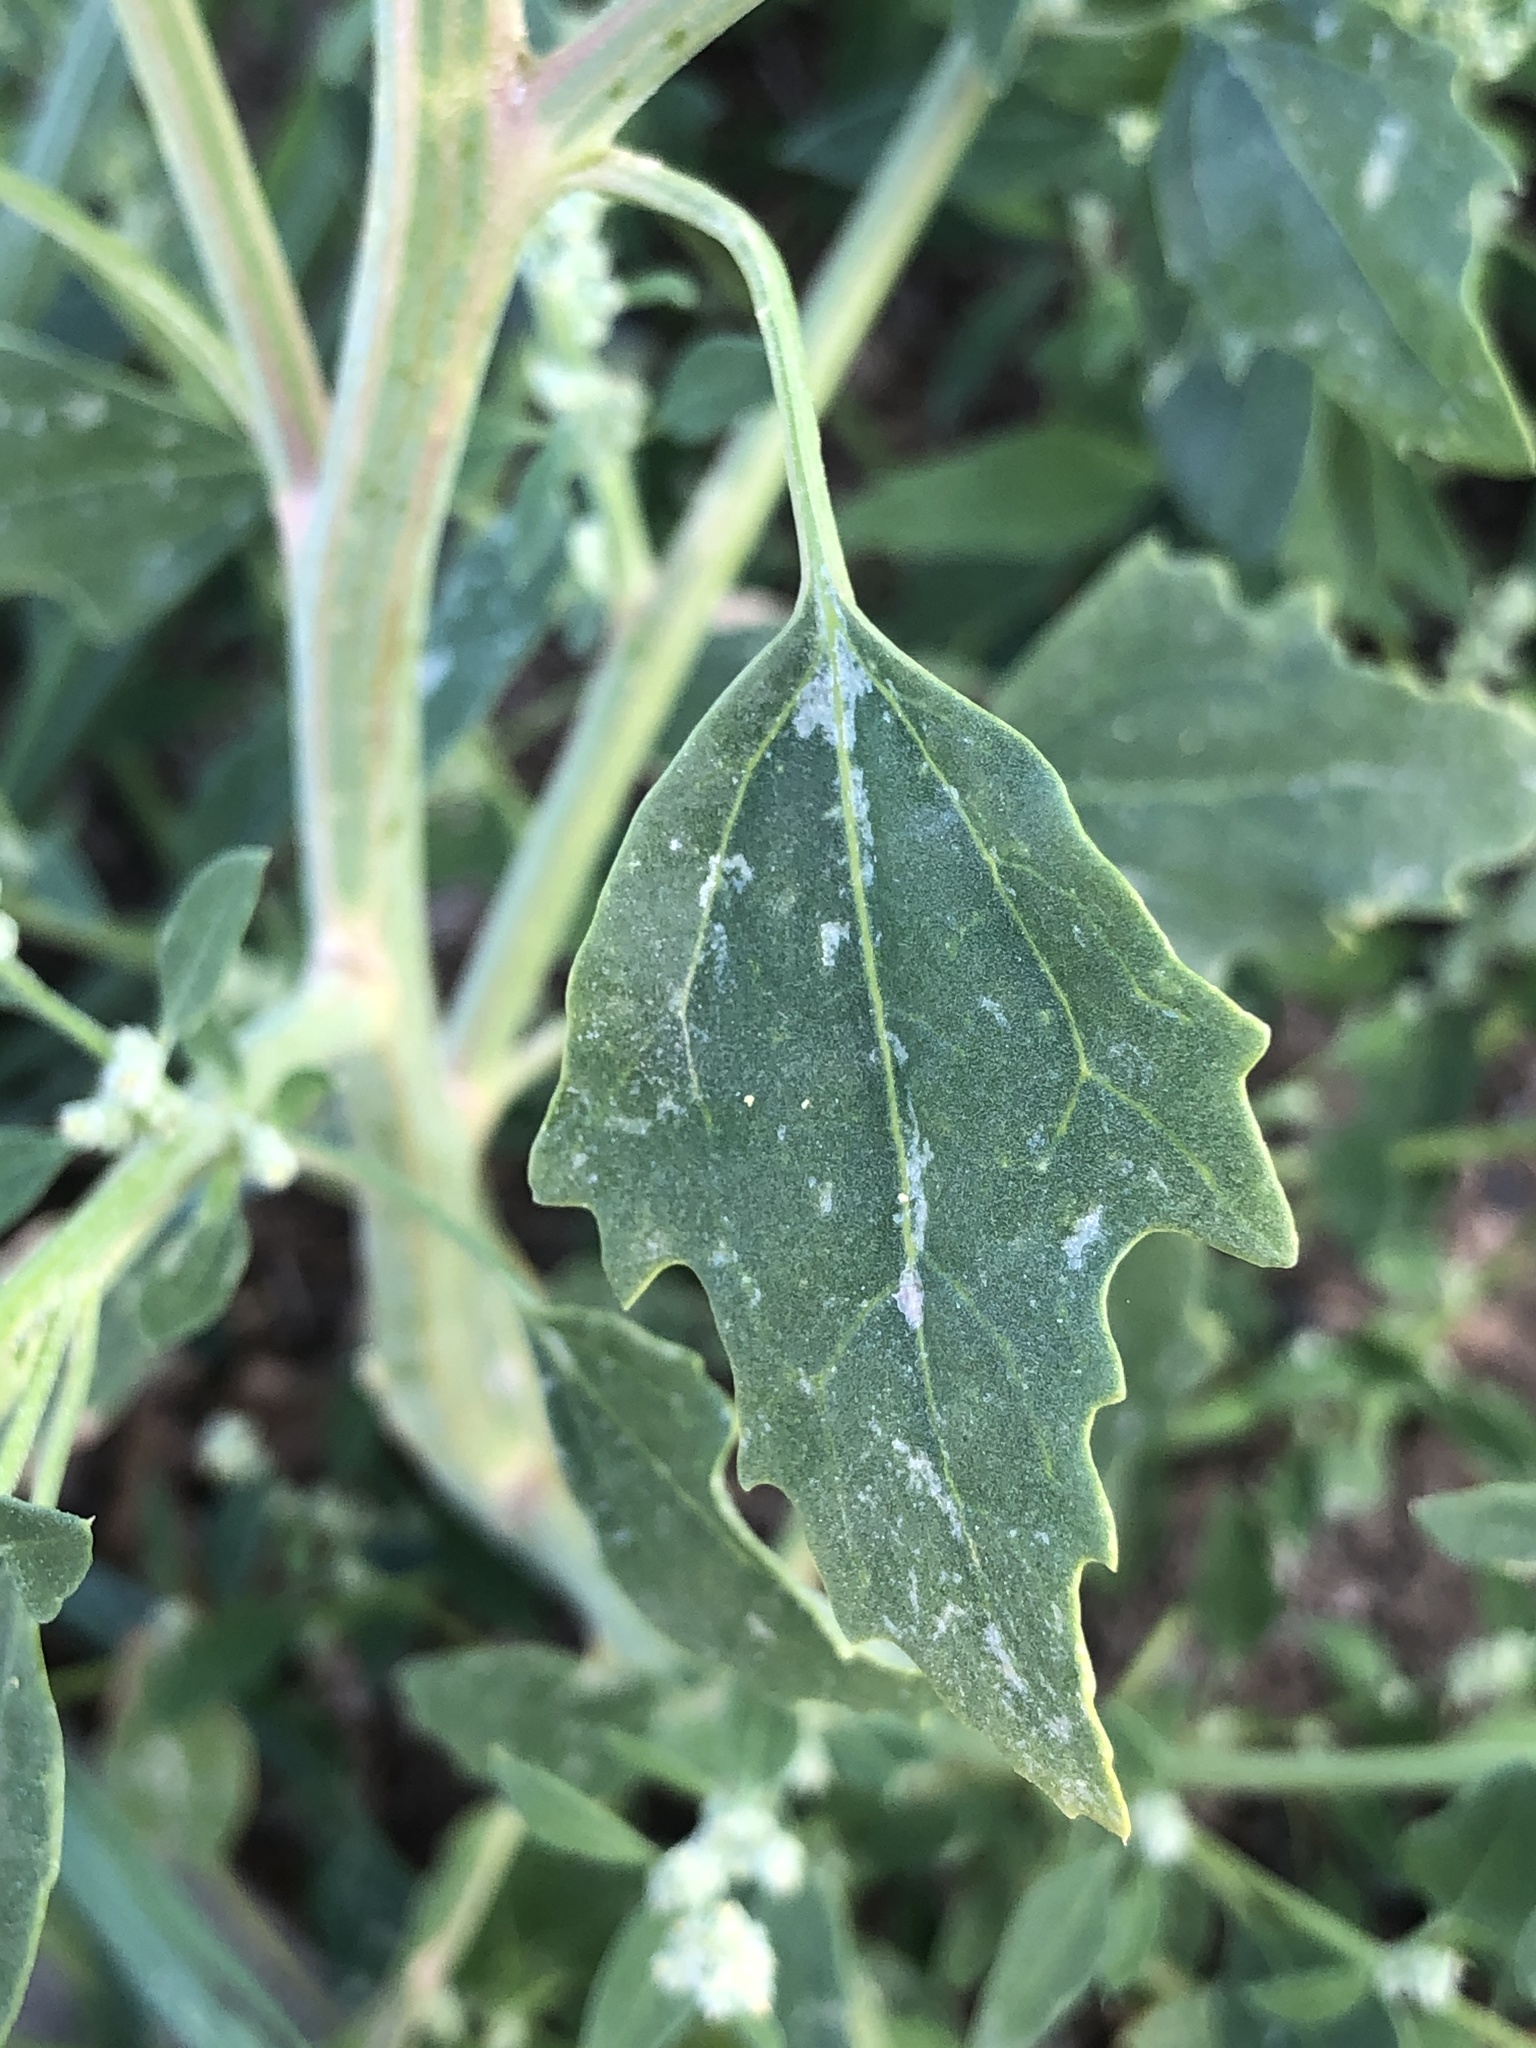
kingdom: Plantae
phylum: Tracheophyta
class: Magnoliopsida
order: Caryophyllales
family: Amaranthaceae
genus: Chenopodium
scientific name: Chenopodium album
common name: Fat-hen
